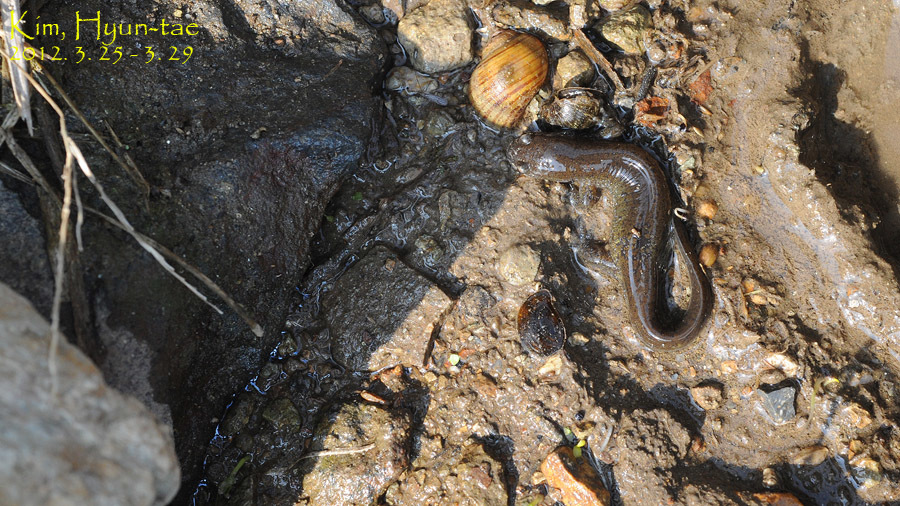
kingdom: Animalia
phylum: Chordata
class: Amphibia
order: Caudata
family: Hynobiidae
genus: Hynobius
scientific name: Hynobius unisacculus
